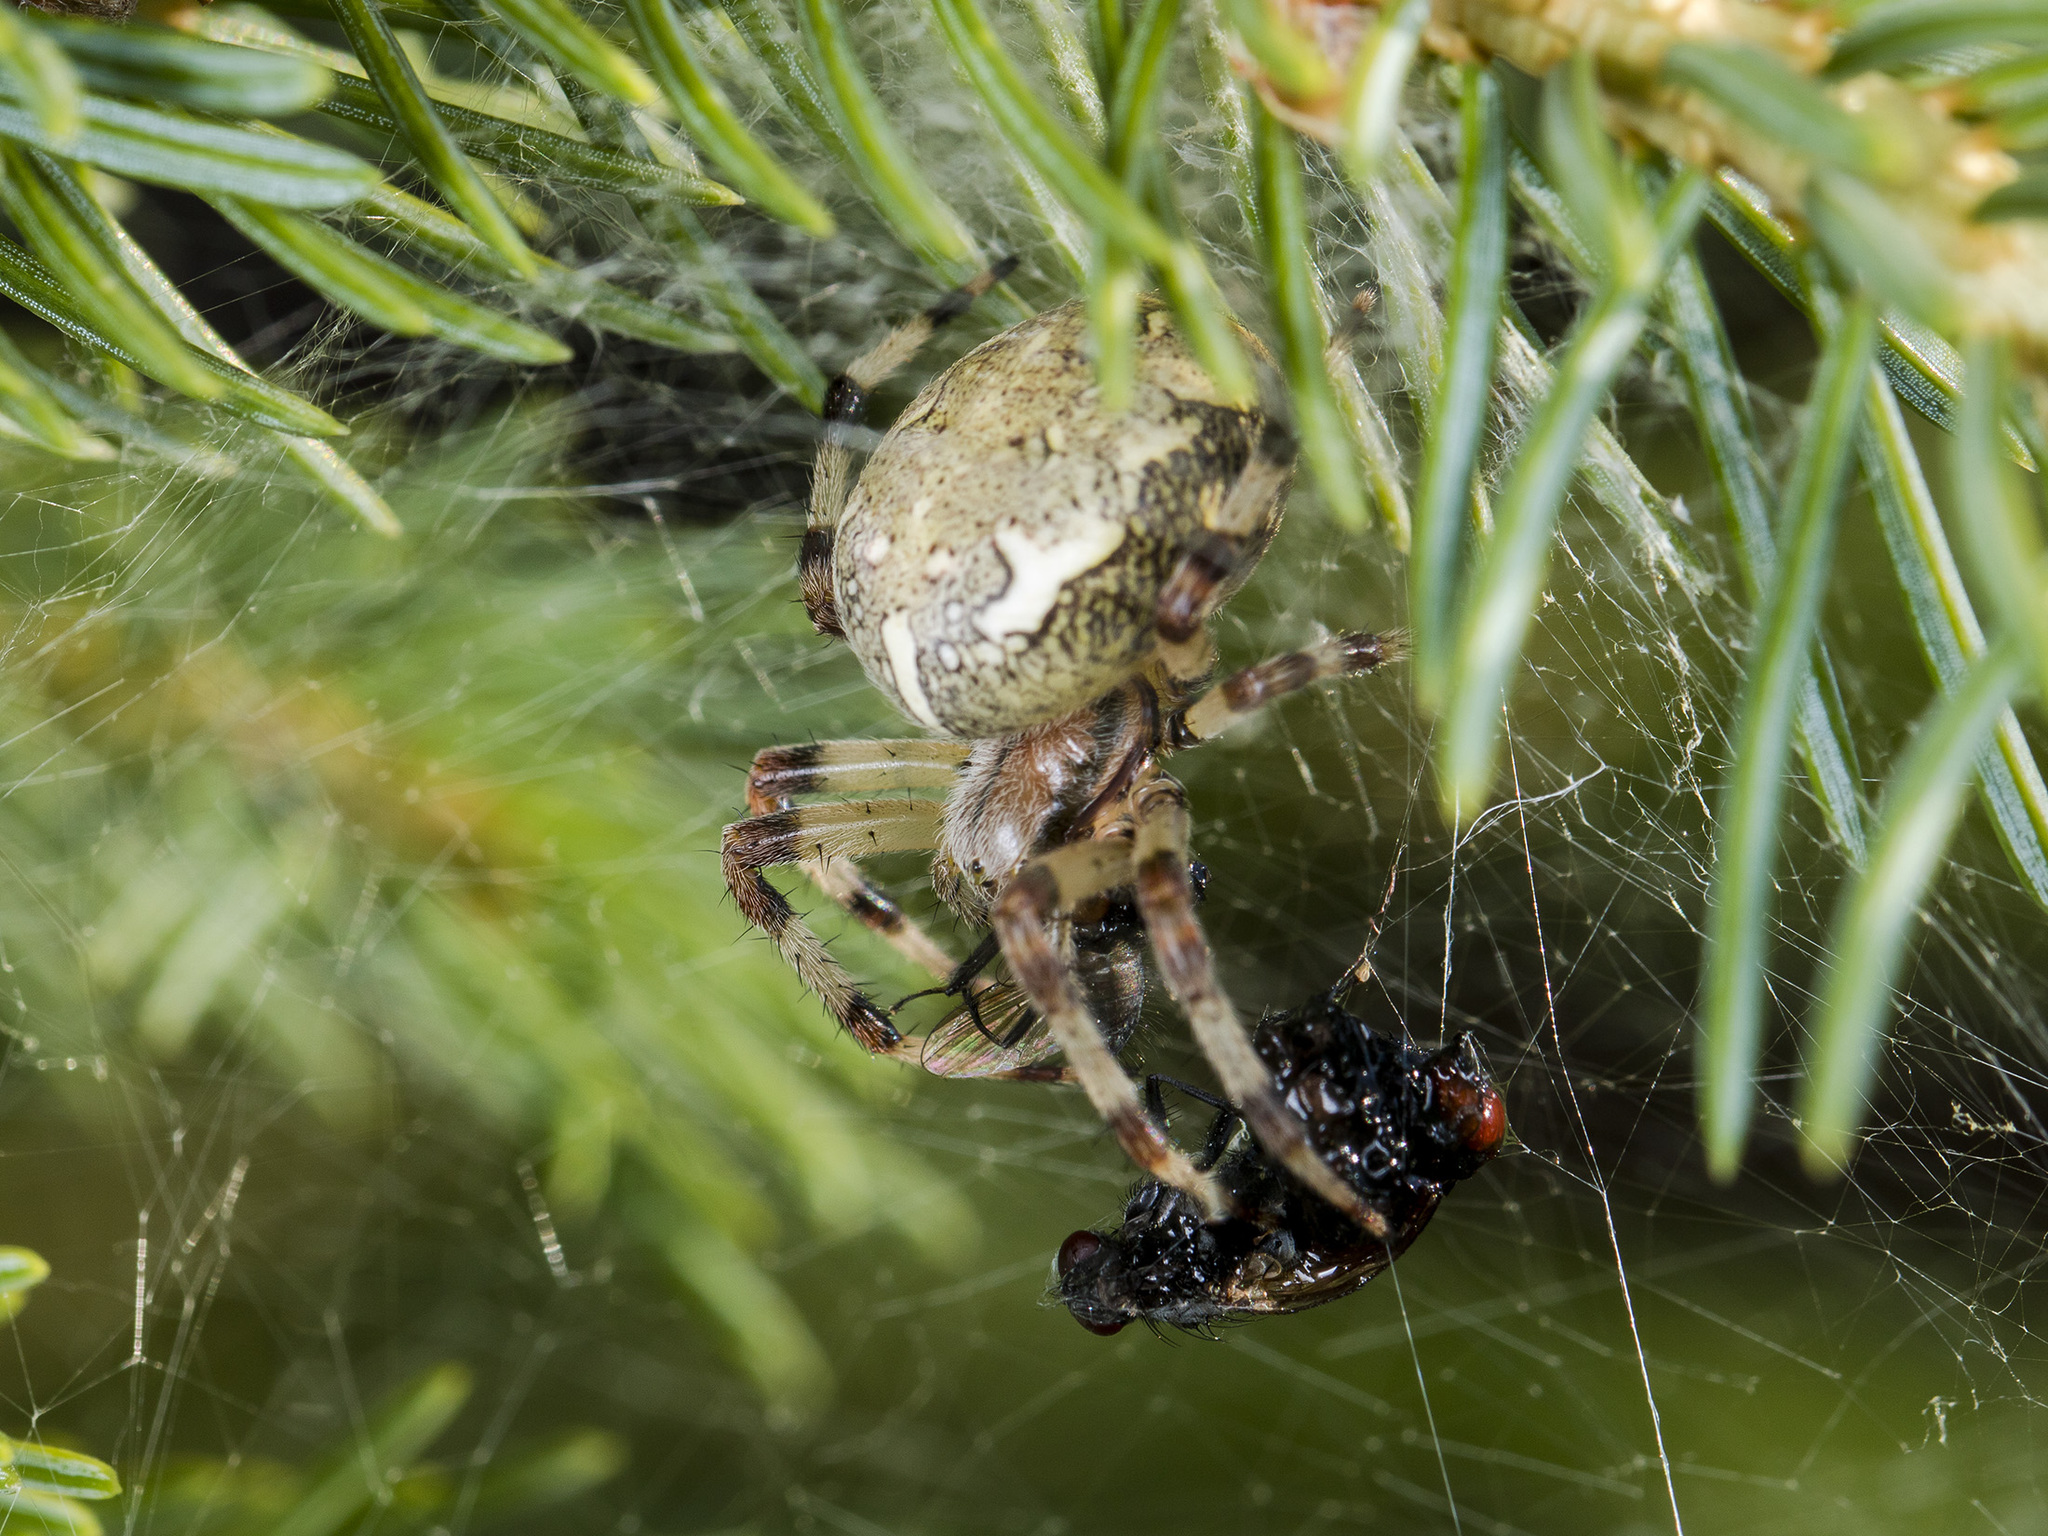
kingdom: Animalia
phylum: Arthropoda
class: Arachnida
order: Araneae
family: Araneidae
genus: Araneus
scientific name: Araneus marmoreus
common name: Marbled orbweaver
